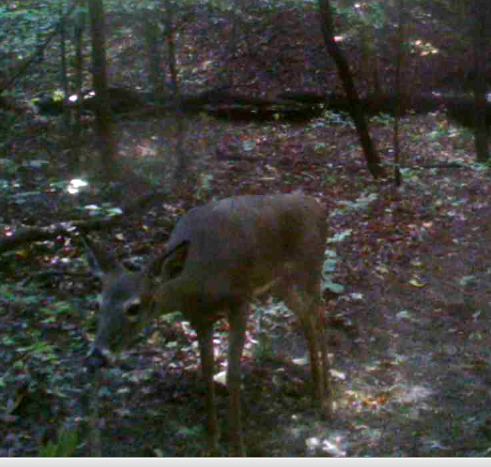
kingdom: Animalia
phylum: Chordata
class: Mammalia
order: Artiodactyla
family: Cervidae
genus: Odocoileus
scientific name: Odocoileus virginianus
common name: White-tailed deer
